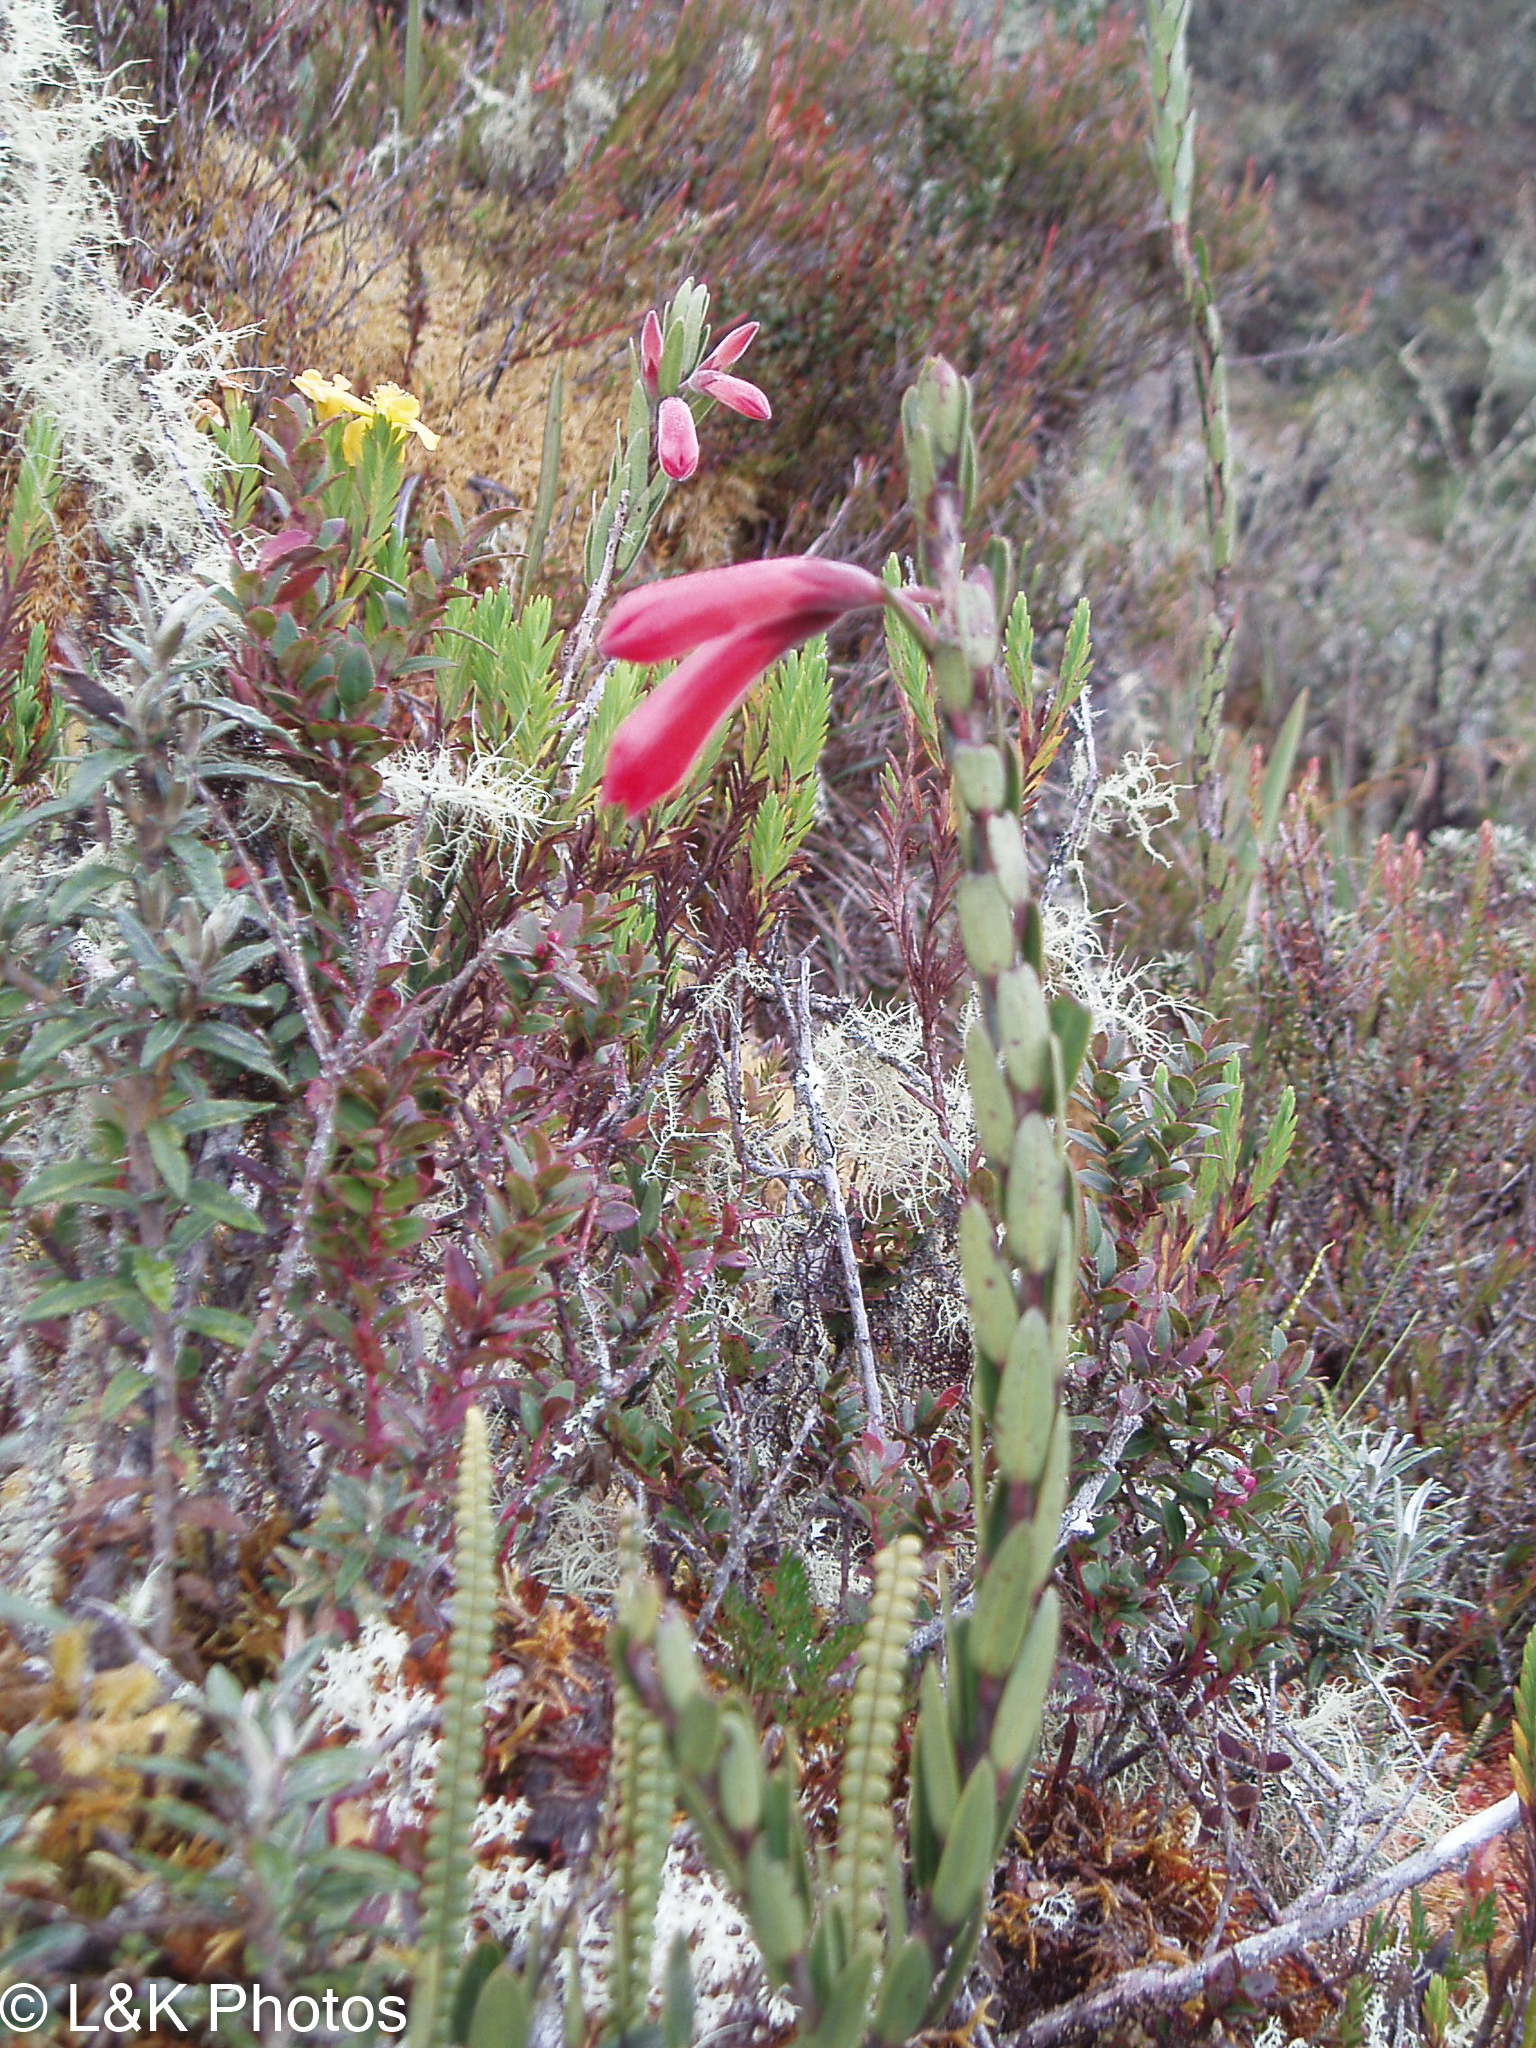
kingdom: Plantae
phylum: Tracheophyta
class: Magnoliopsida
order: Ericales
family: Ericaceae
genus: Demosthenesia
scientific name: Demosthenesia spectabilis
